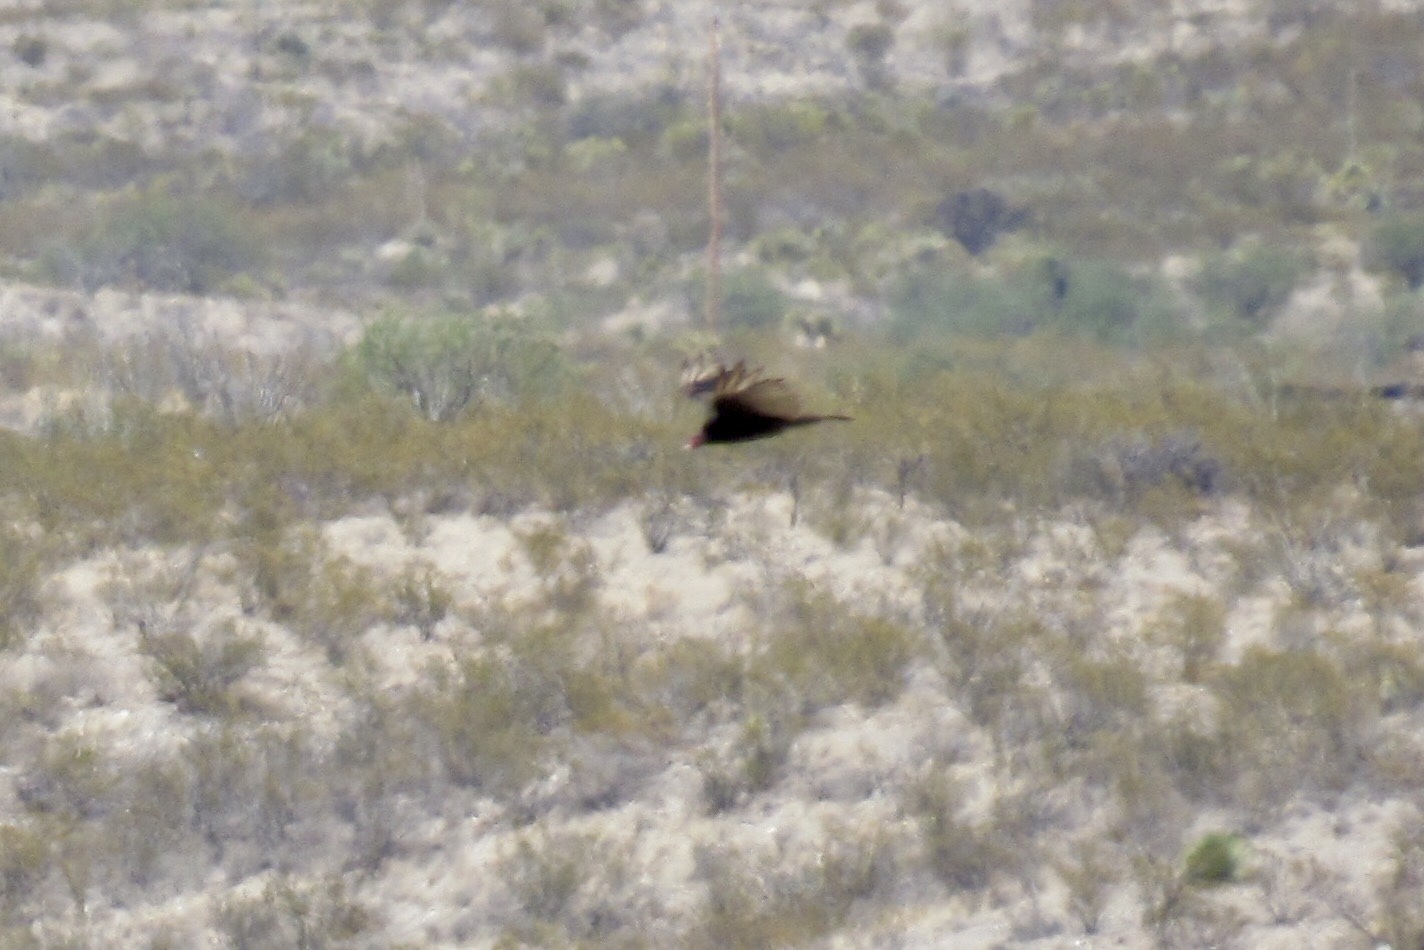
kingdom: Animalia
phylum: Chordata
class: Aves
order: Accipitriformes
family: Cathartidae
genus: Cathartes
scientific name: Cathartes aura
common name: Turkey vulture
